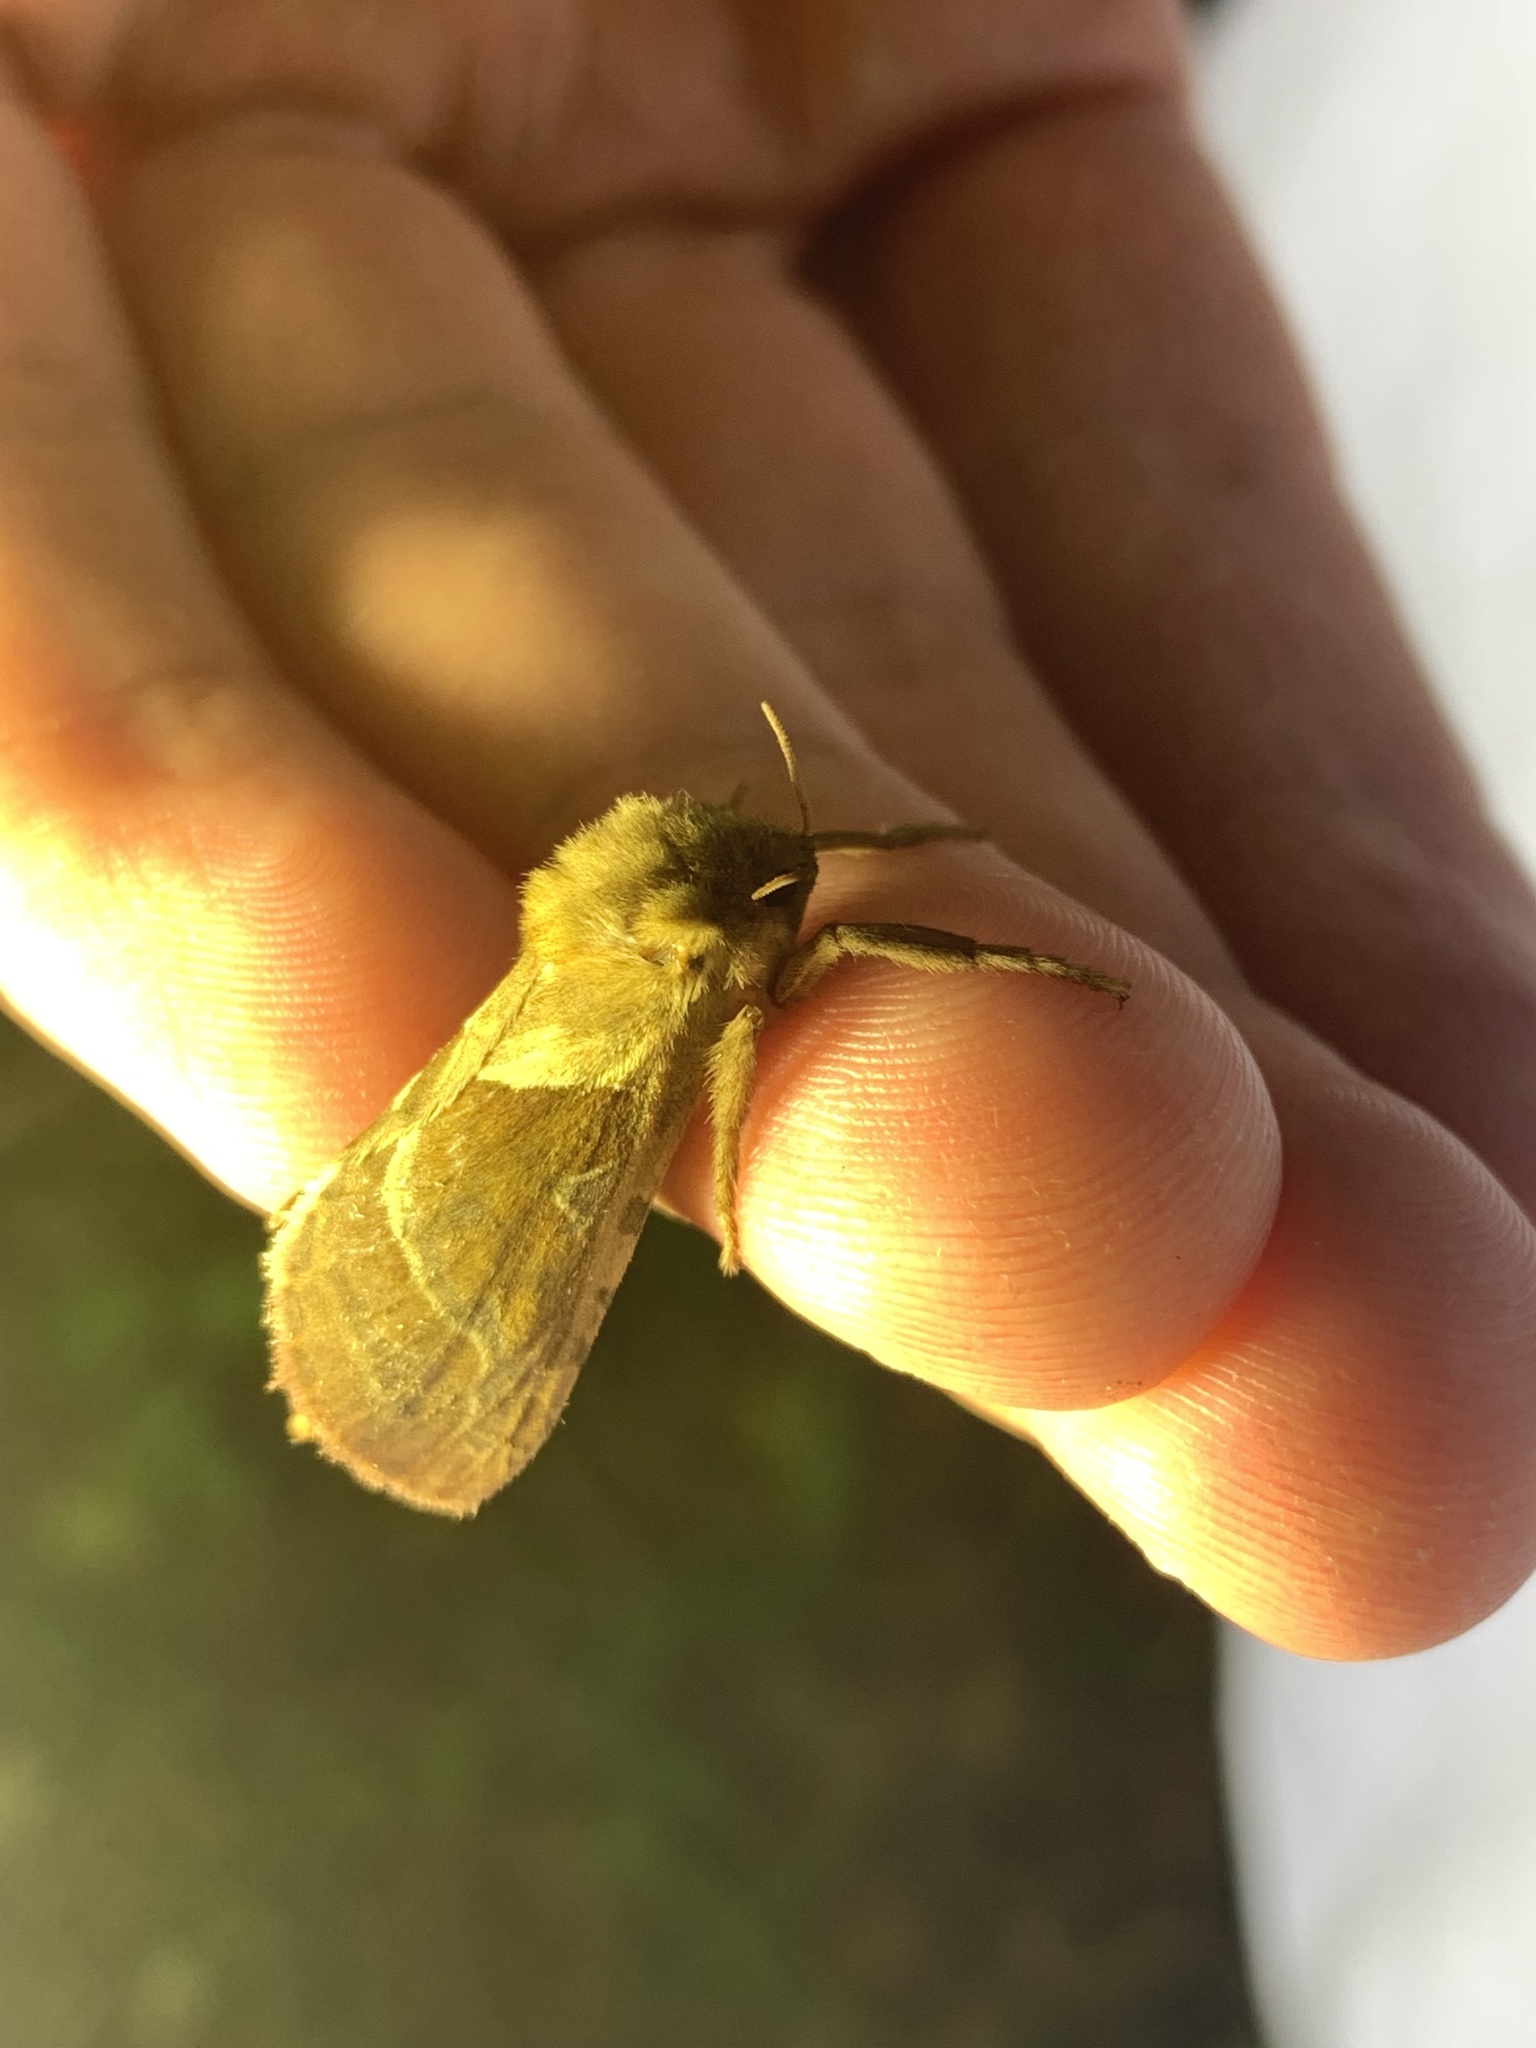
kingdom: Animalia
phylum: Arthropoda
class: Insecta
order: Lepidoptera
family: Hepialidae
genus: Triodia
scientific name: Triodia sylvina
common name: Orange swift
